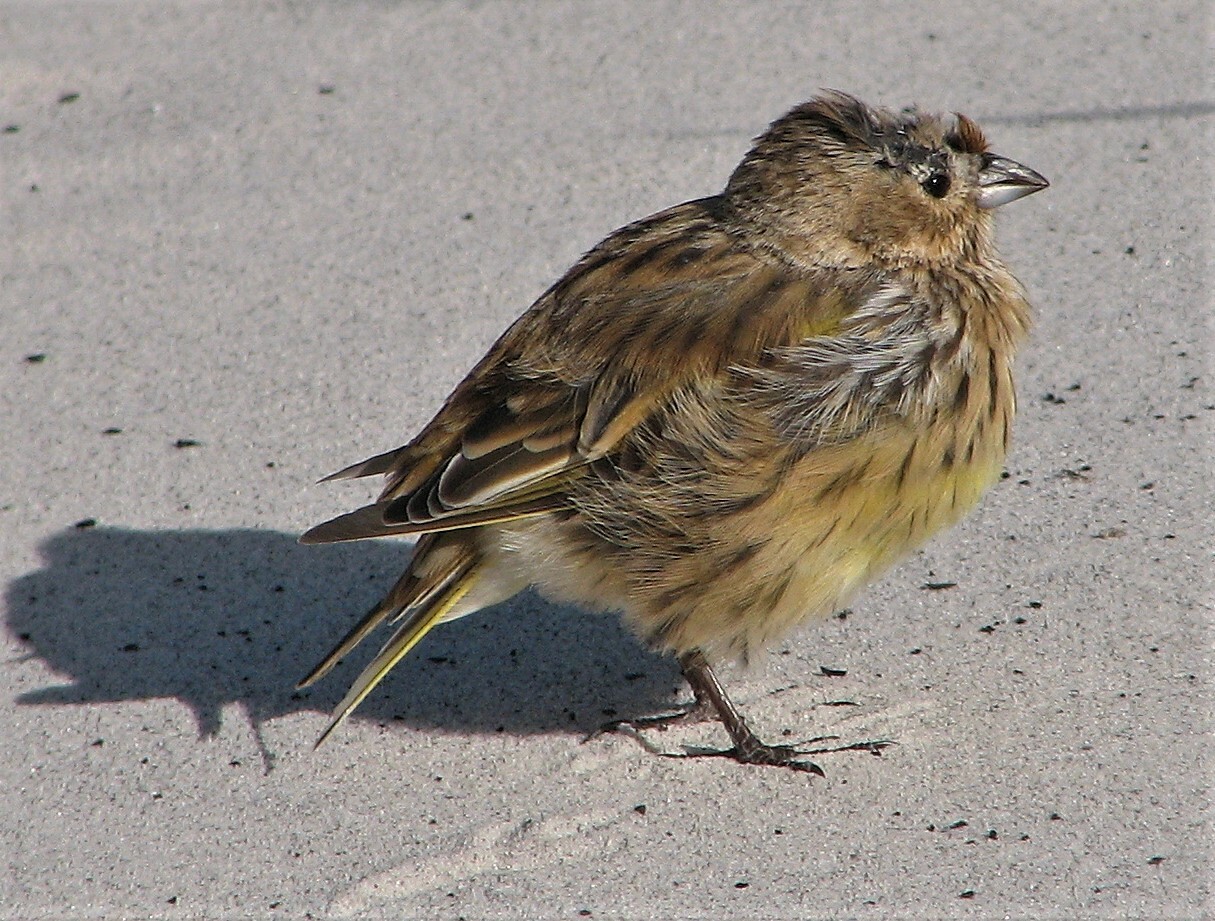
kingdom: Animalia
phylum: Chordata
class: Aves
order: Passeriformes
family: Thraupidae
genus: Melanodera
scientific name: Melanodera melanodera
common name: White-bridled finch
